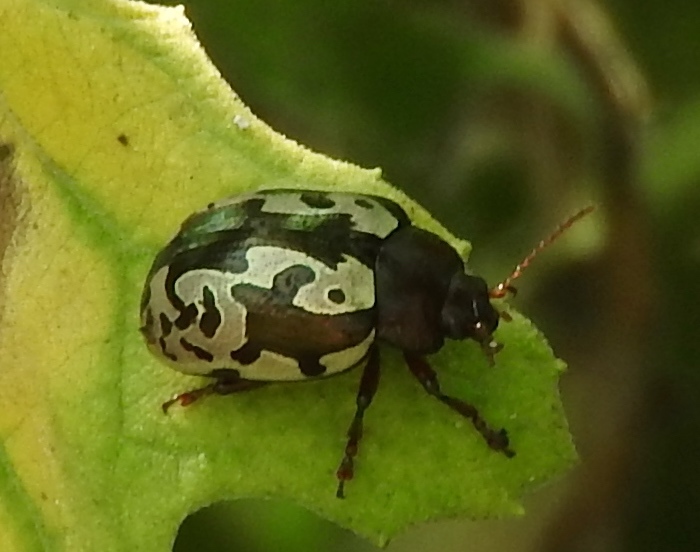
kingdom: Animalia
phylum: Arthropoda
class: Insecta
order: Coleoptera
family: Chrysomelidae
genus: Calligrapha
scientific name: Calligrapha intermedia
